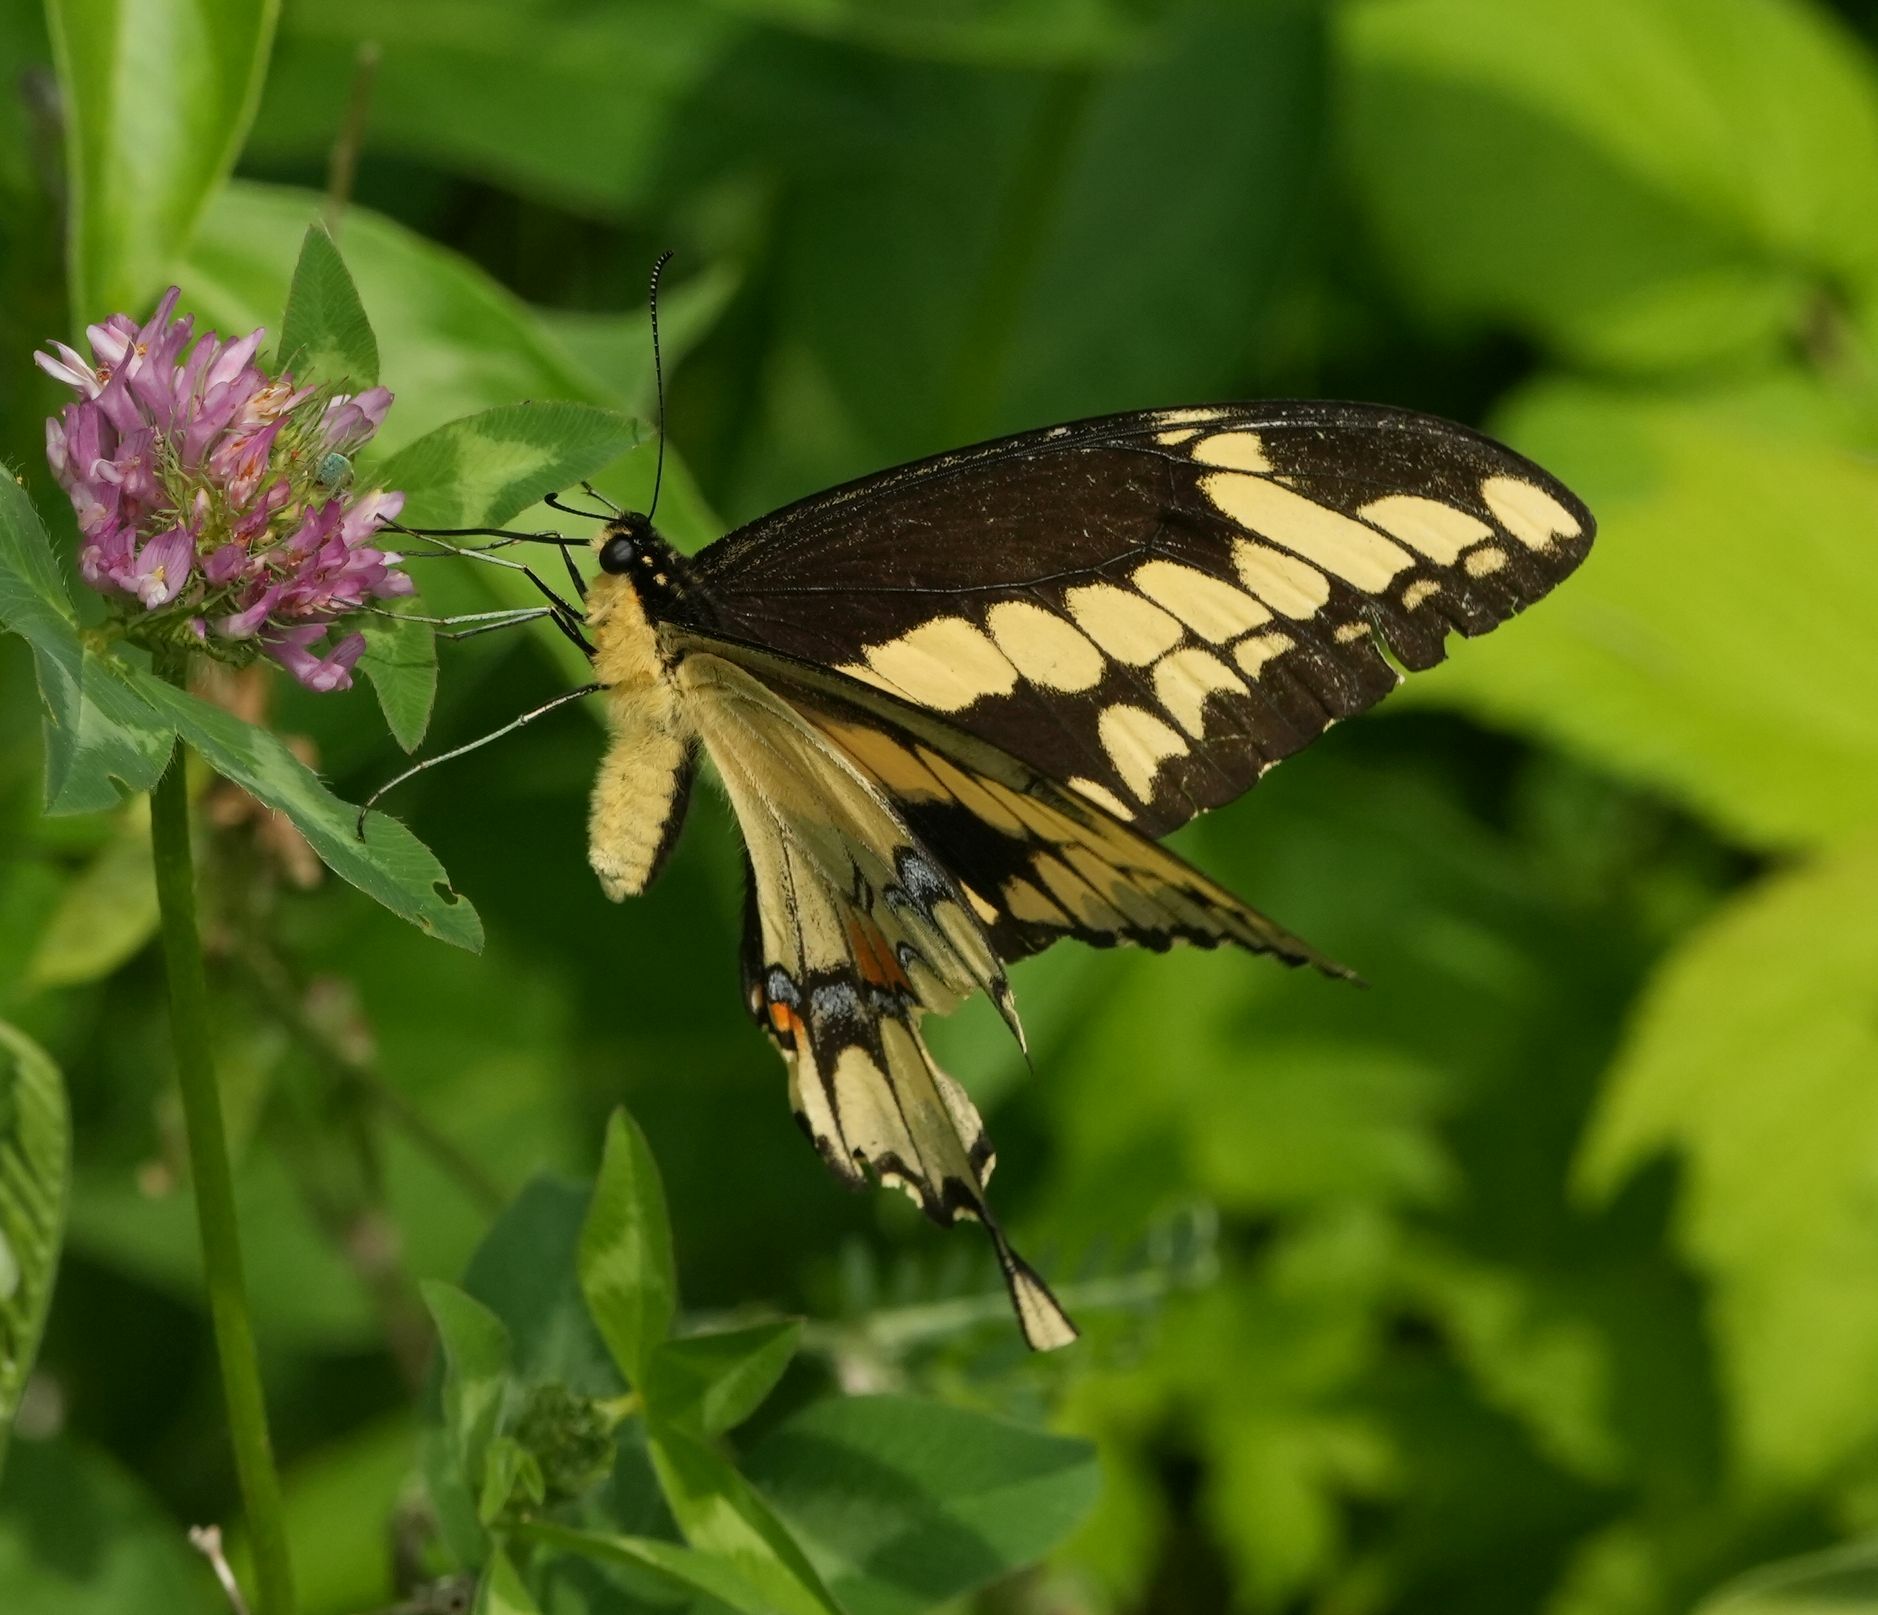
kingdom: Animalia
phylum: Arthropoda
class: Insecta
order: Lepidoptera
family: Papilionidae
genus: Papilio
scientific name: Papilio cresphontes
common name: Giant swallowtail
